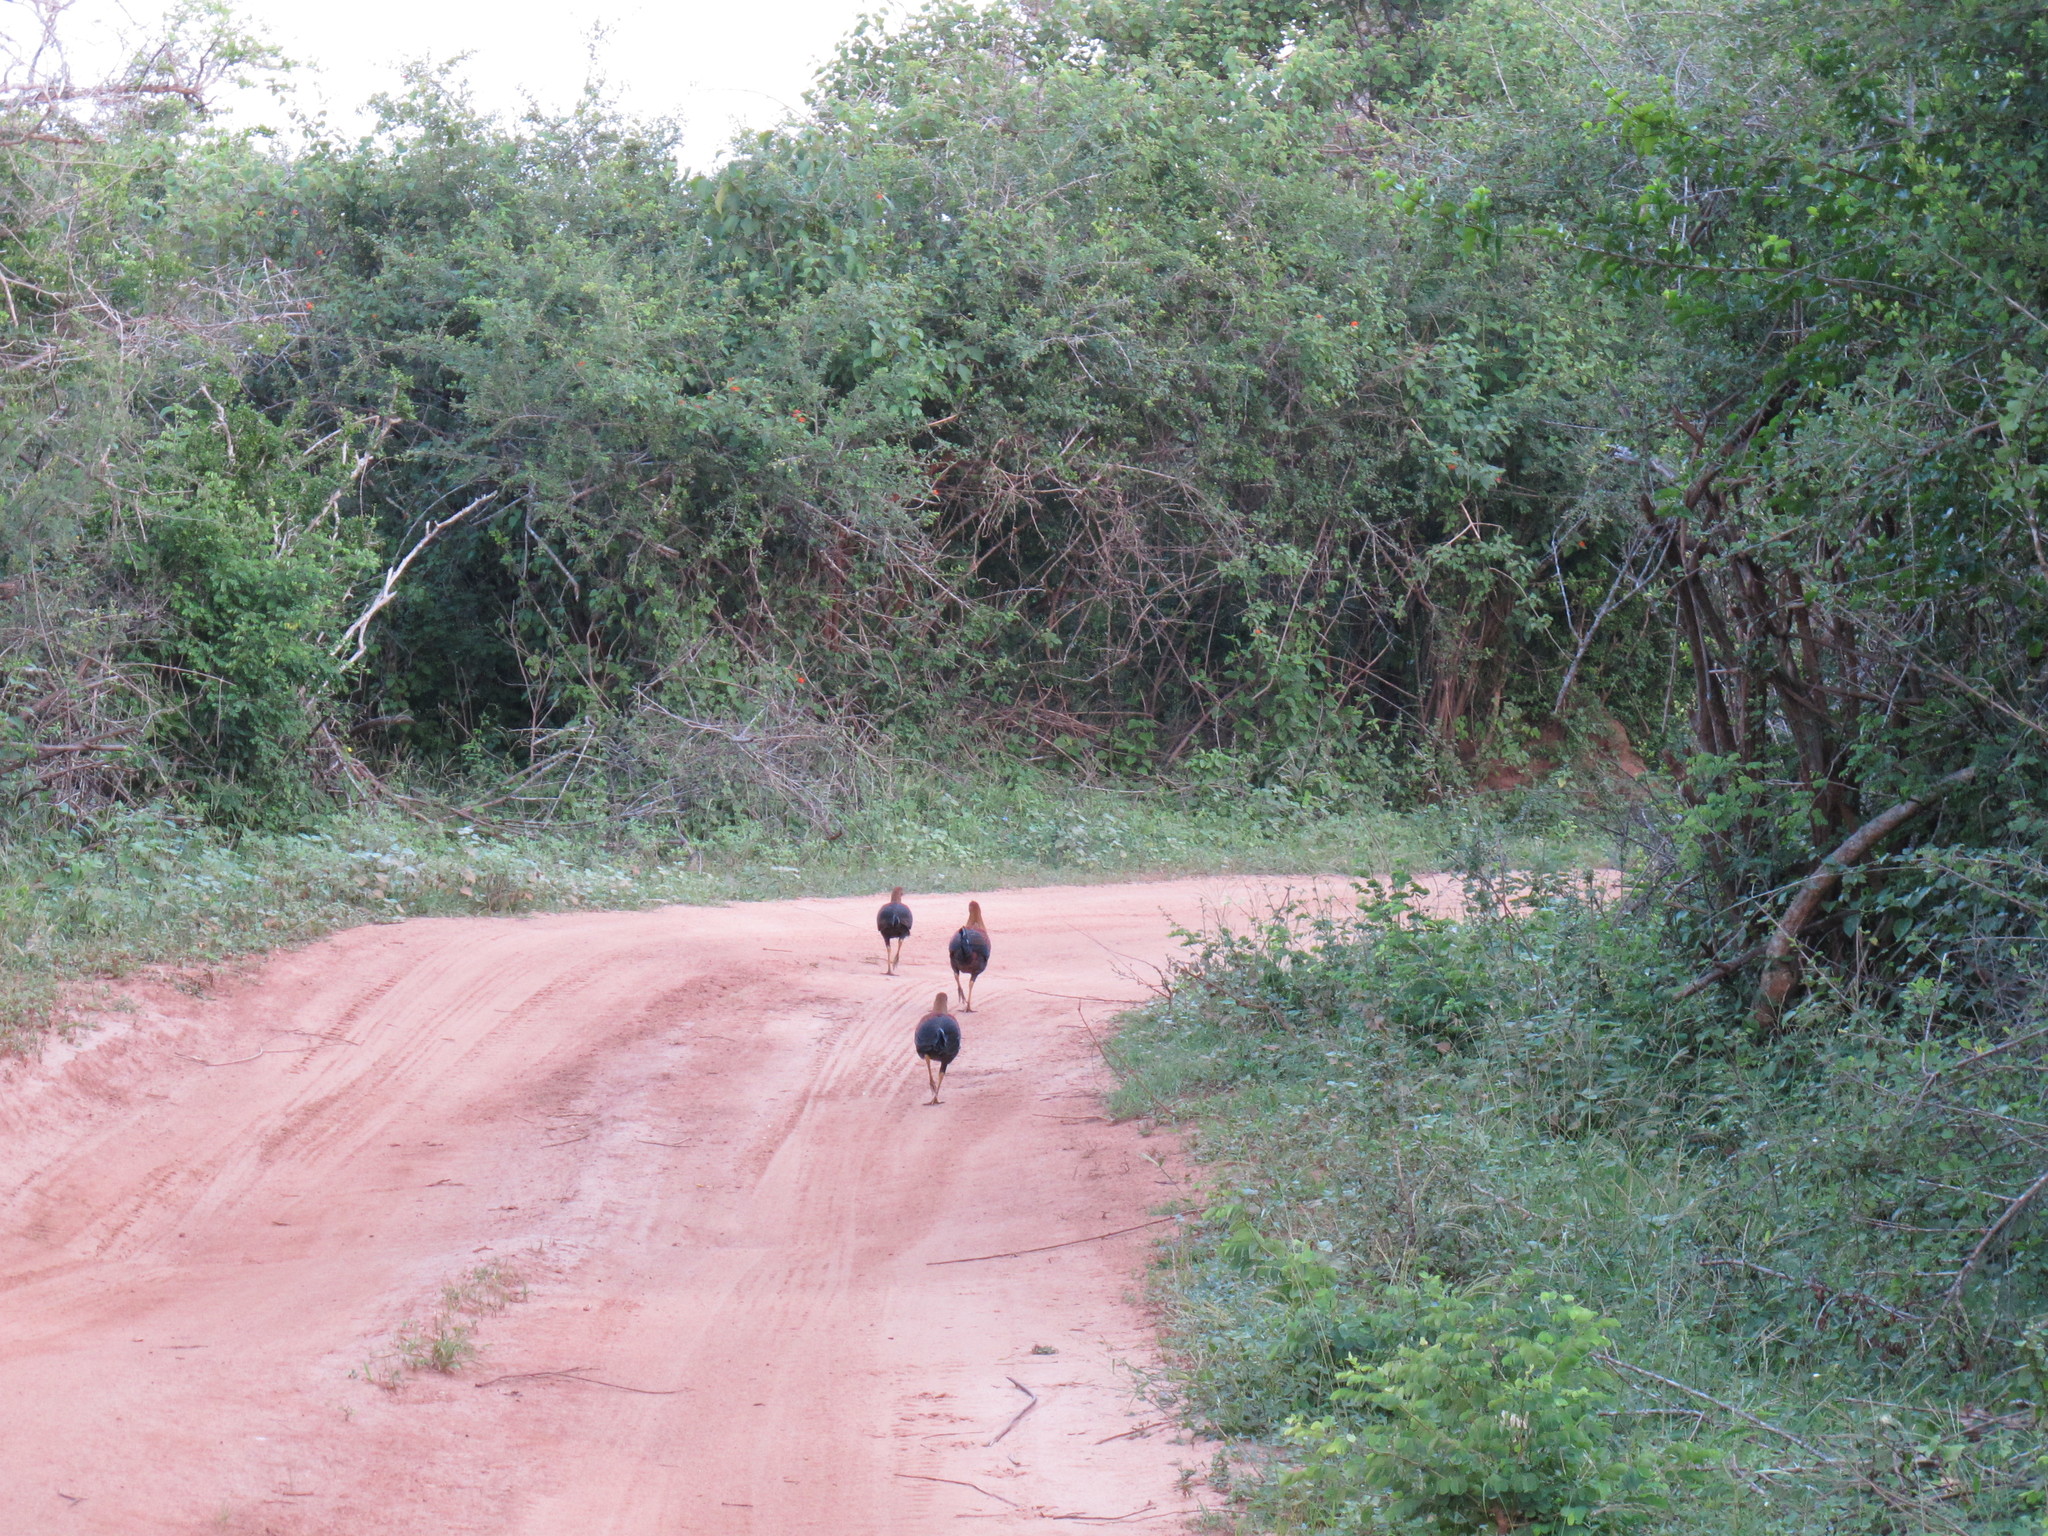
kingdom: Animalia
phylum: Chordata
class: Aves
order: Galliformes
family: Phasianidae
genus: Gallus
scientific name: Gallus lafayettii
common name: Sri lanka junglefowl
